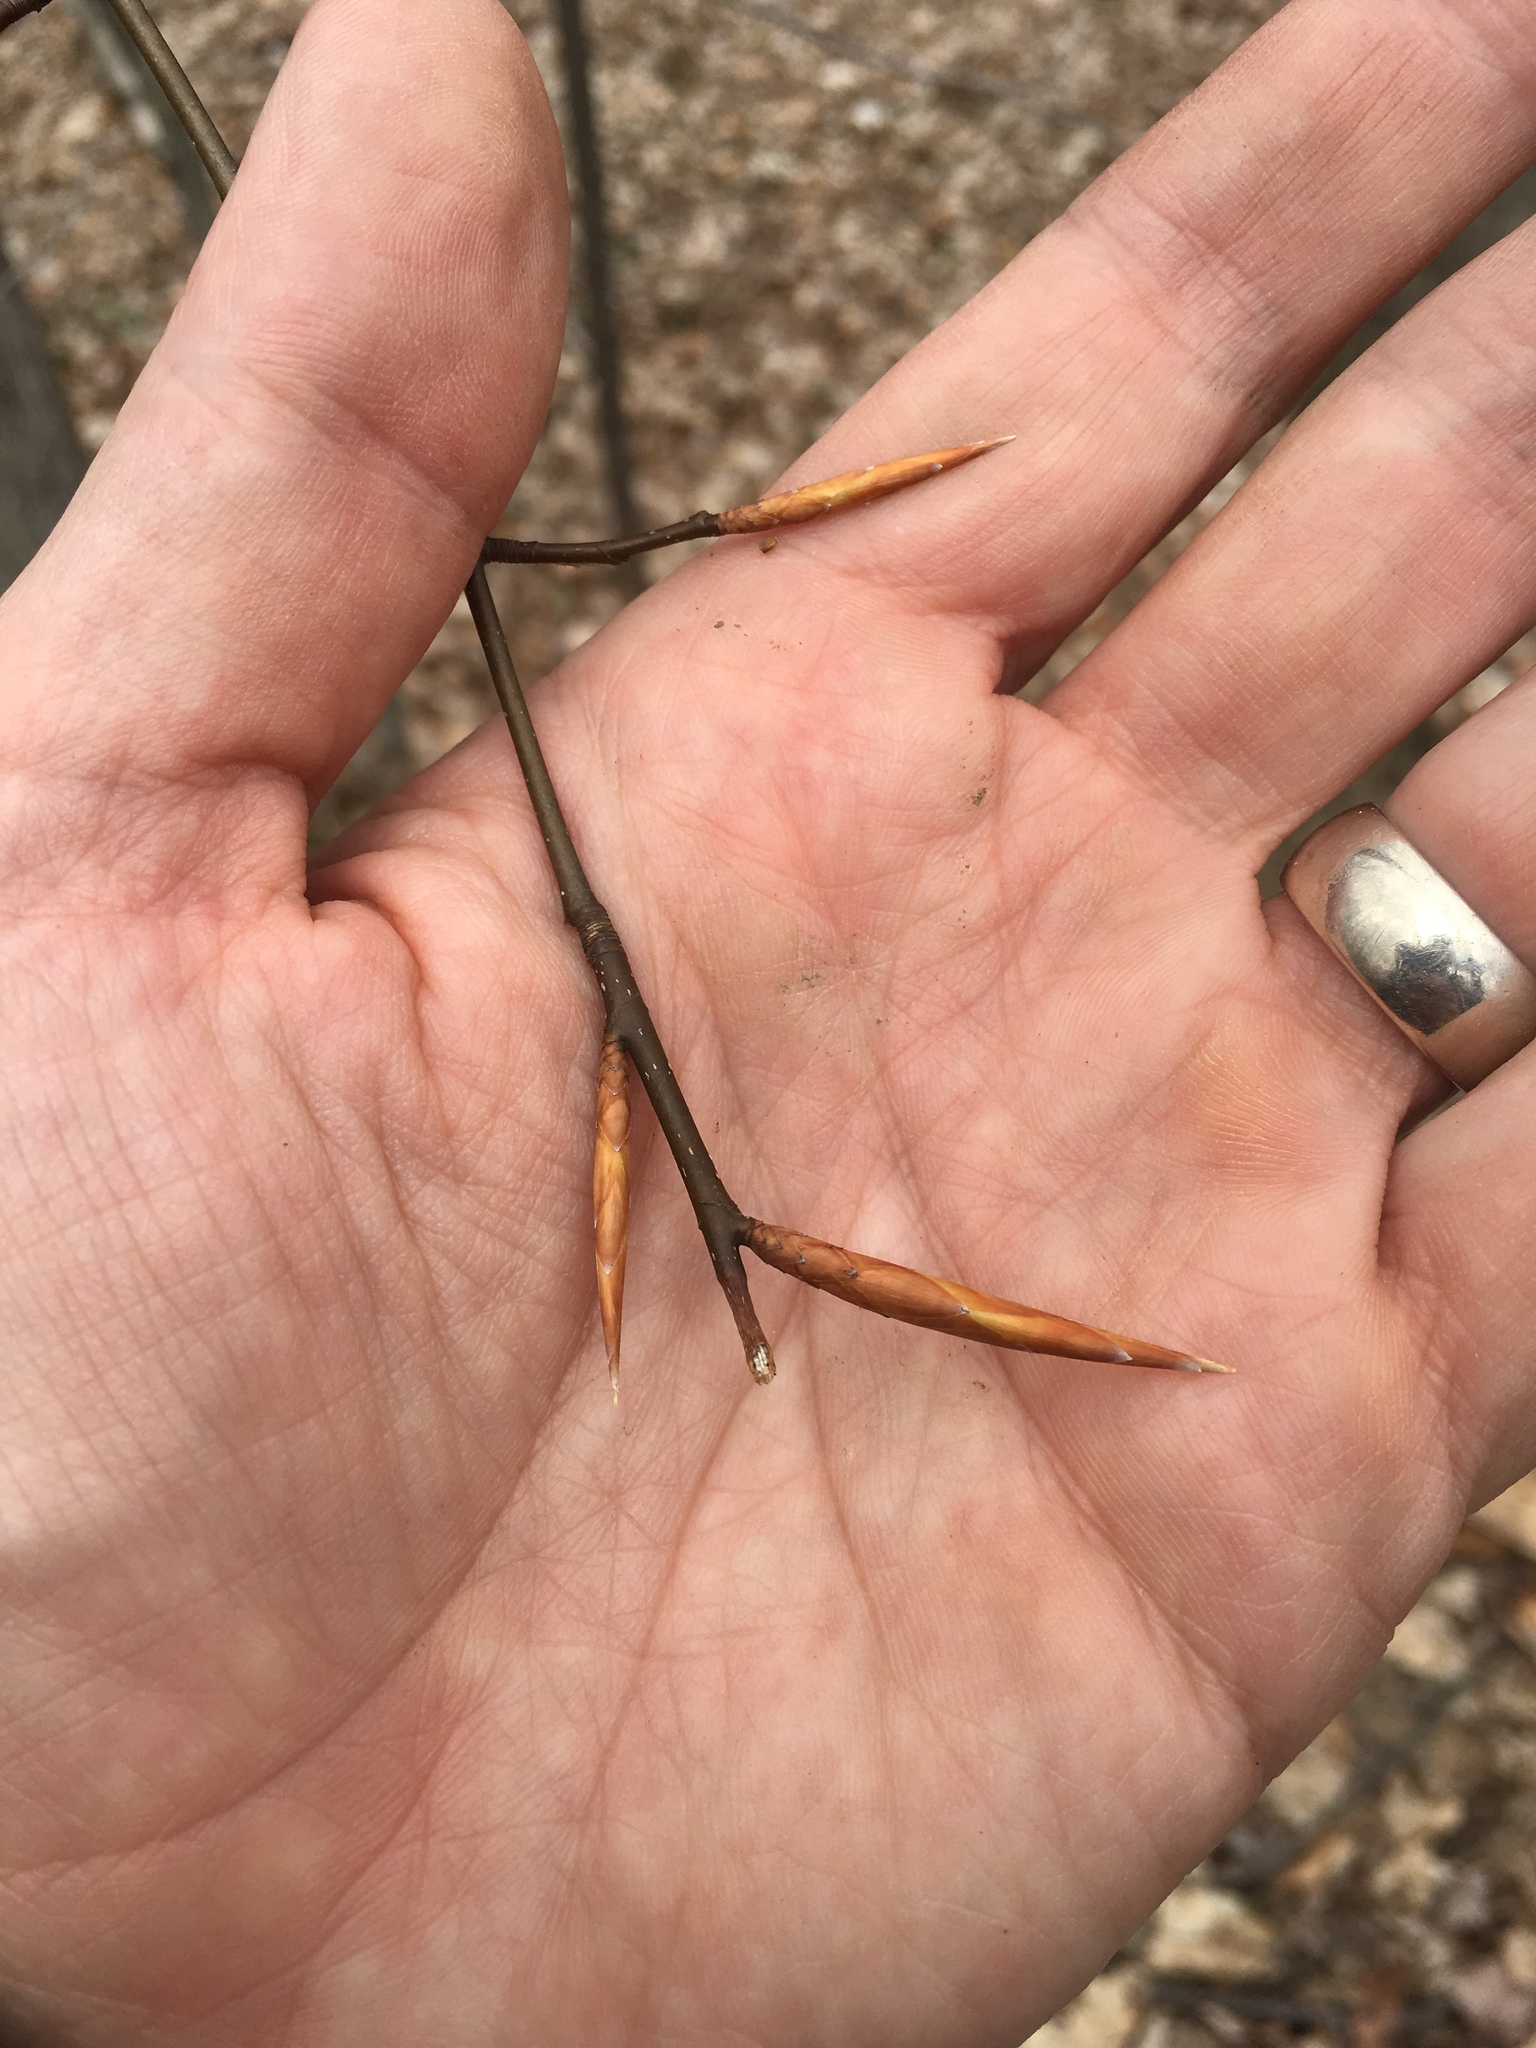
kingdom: Plantae
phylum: Tracheophyta
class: Magnoliopsida
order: Fagales
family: Fagaceae
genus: Fagus
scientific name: Fagus grandifolia
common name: American beech
